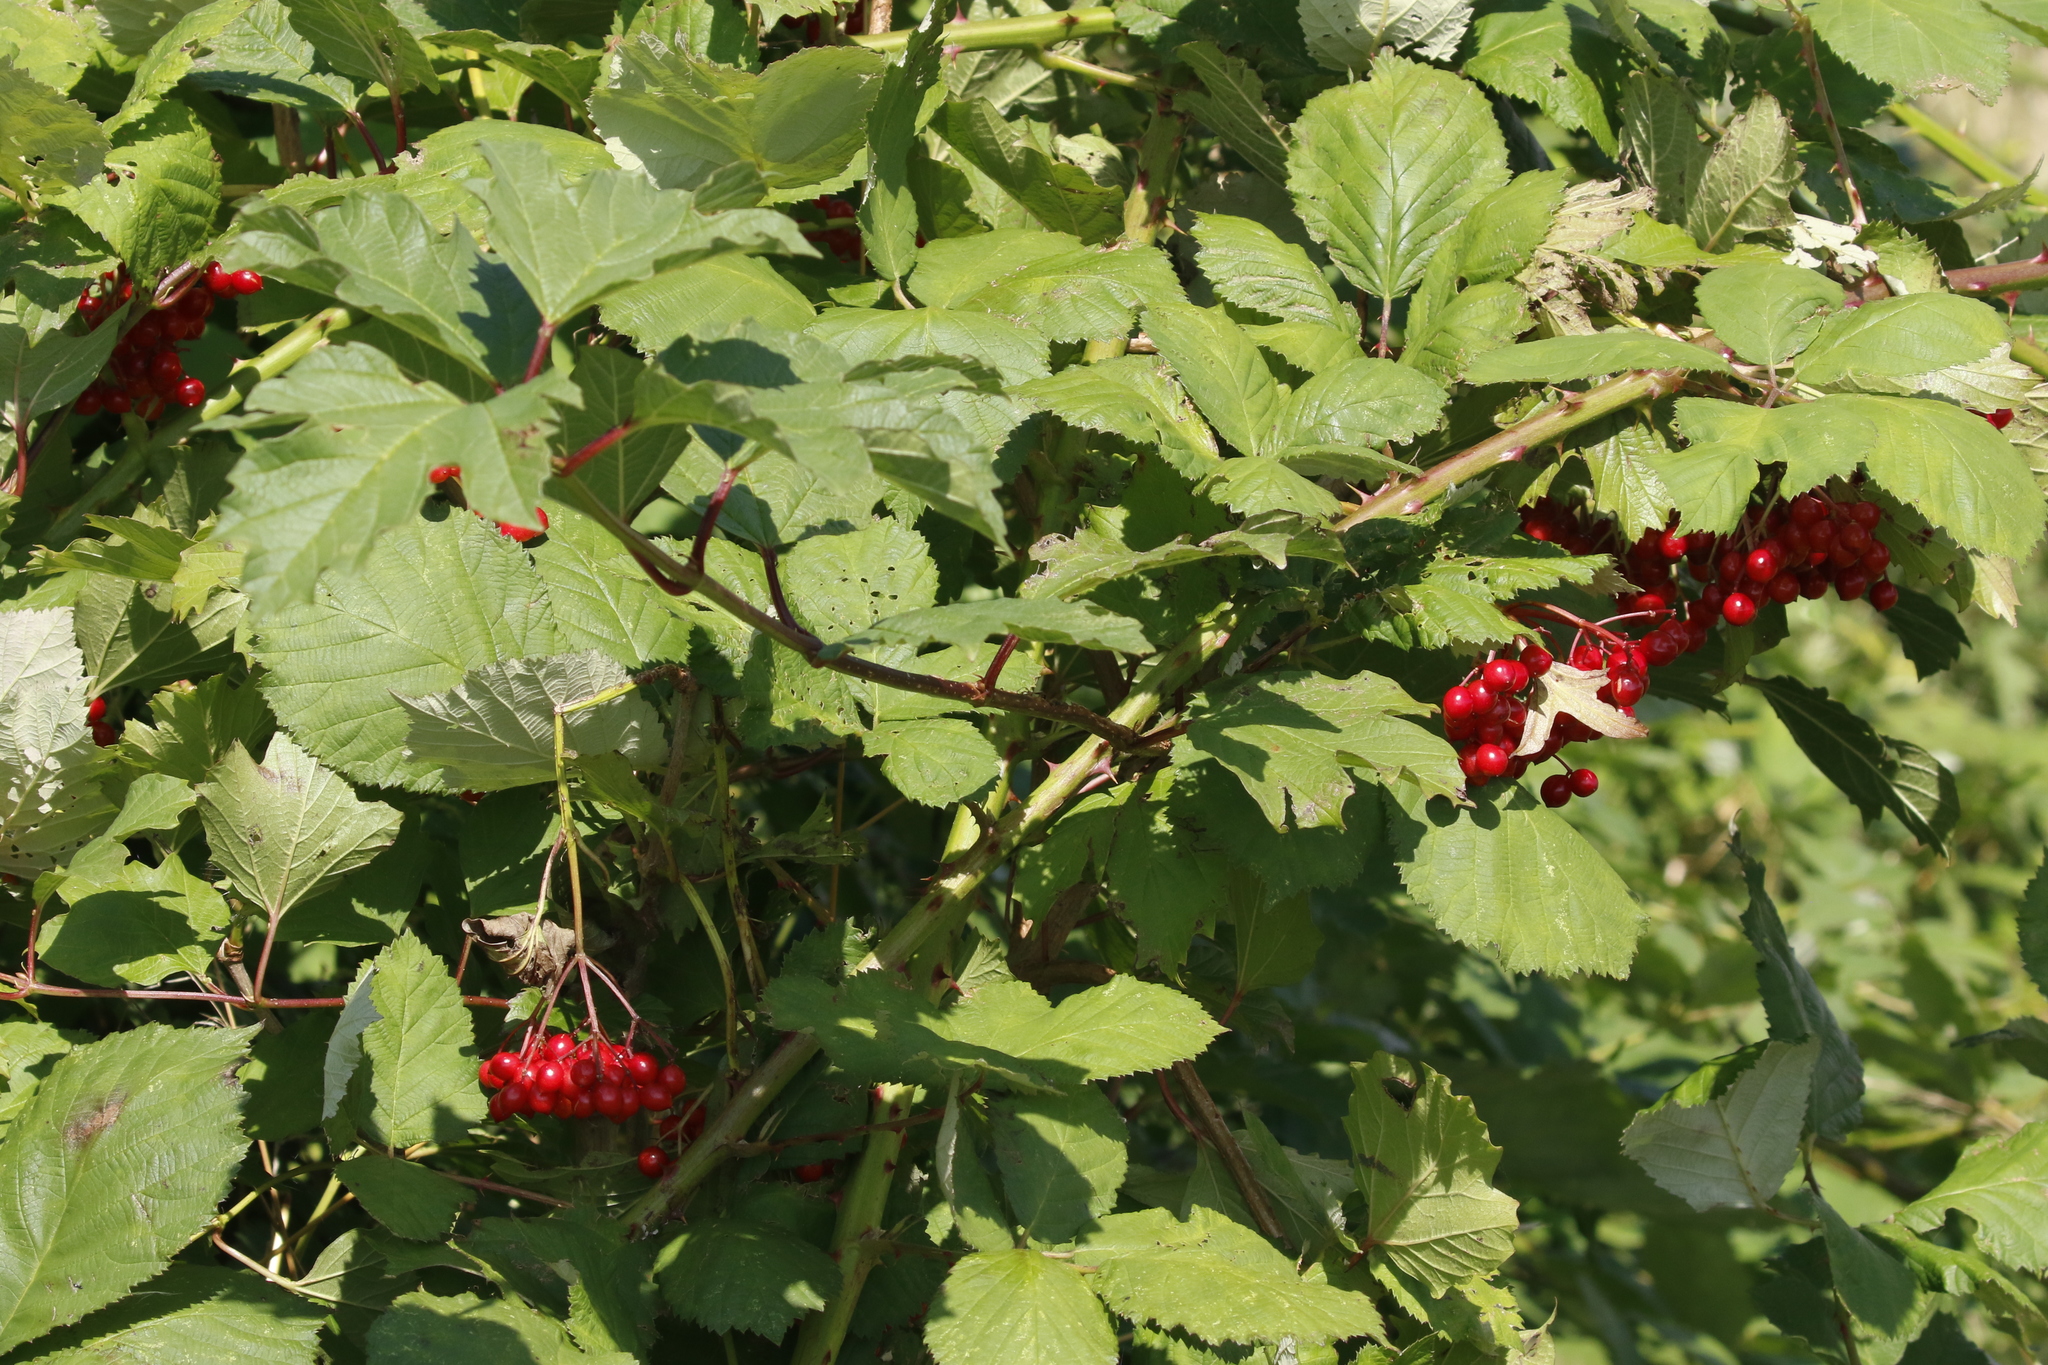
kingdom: Plantae
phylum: Tracheophyta
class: Magnoliopsida
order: Dipsacales
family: Viburnaceae
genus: Viburnum
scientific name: Viburnum opulus
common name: Guelder-rose
